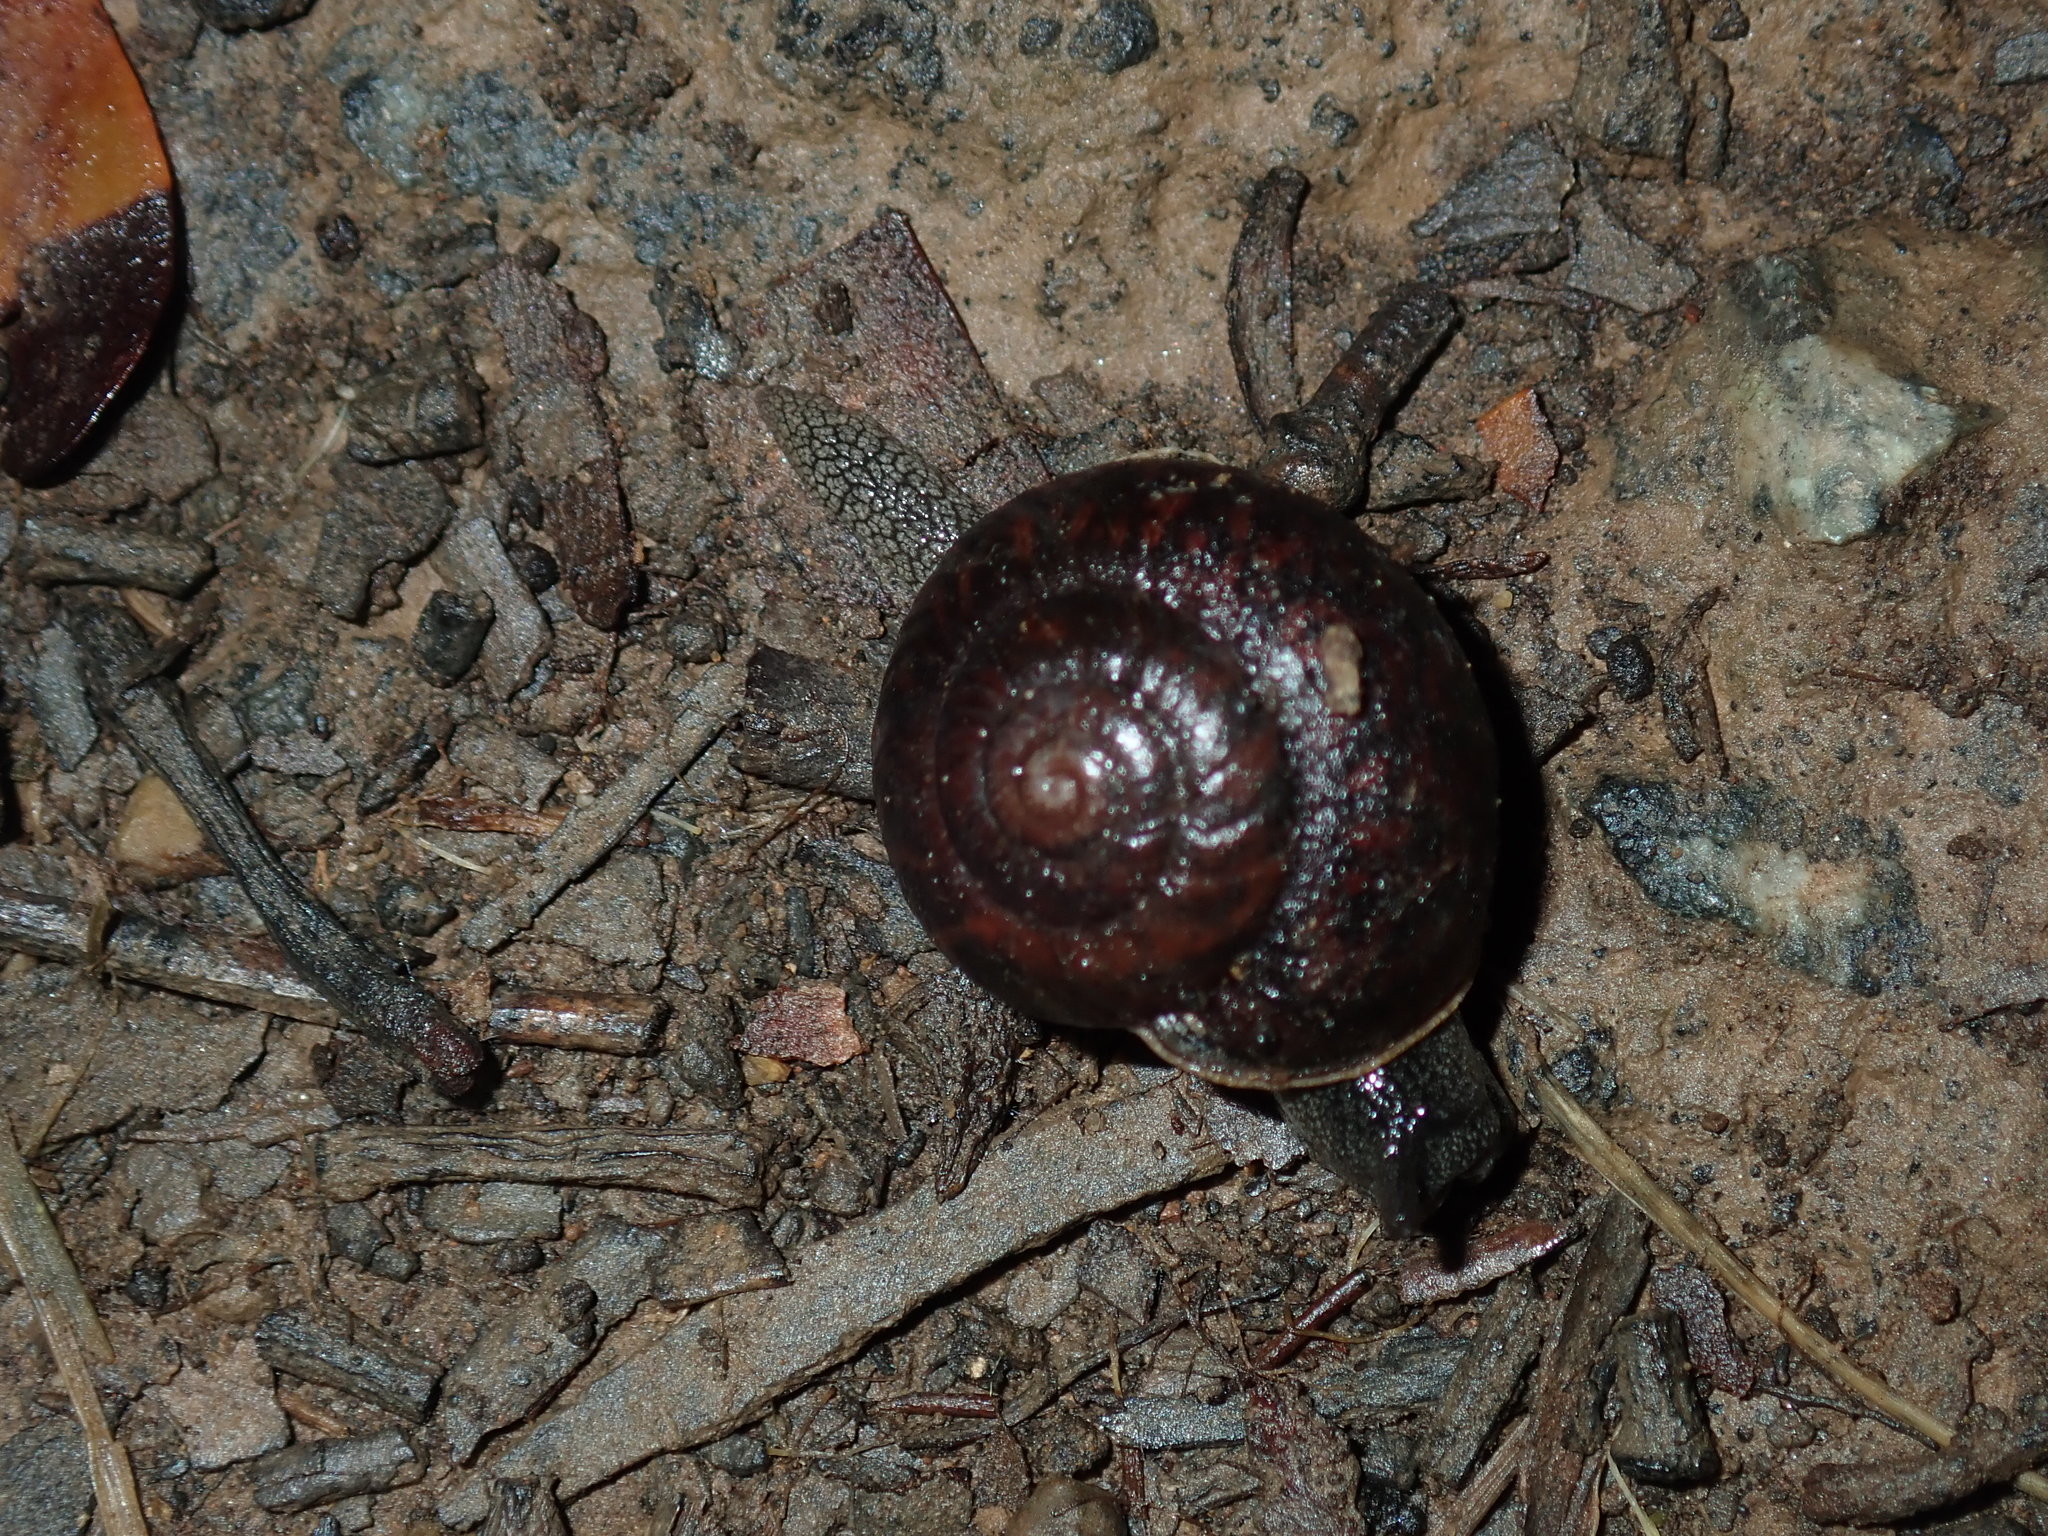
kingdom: Animalia
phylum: Mollusca
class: Gastropoda
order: Stylommatophora
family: Camaenidae
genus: Sauroconcha
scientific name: Sauroconcha sheai
